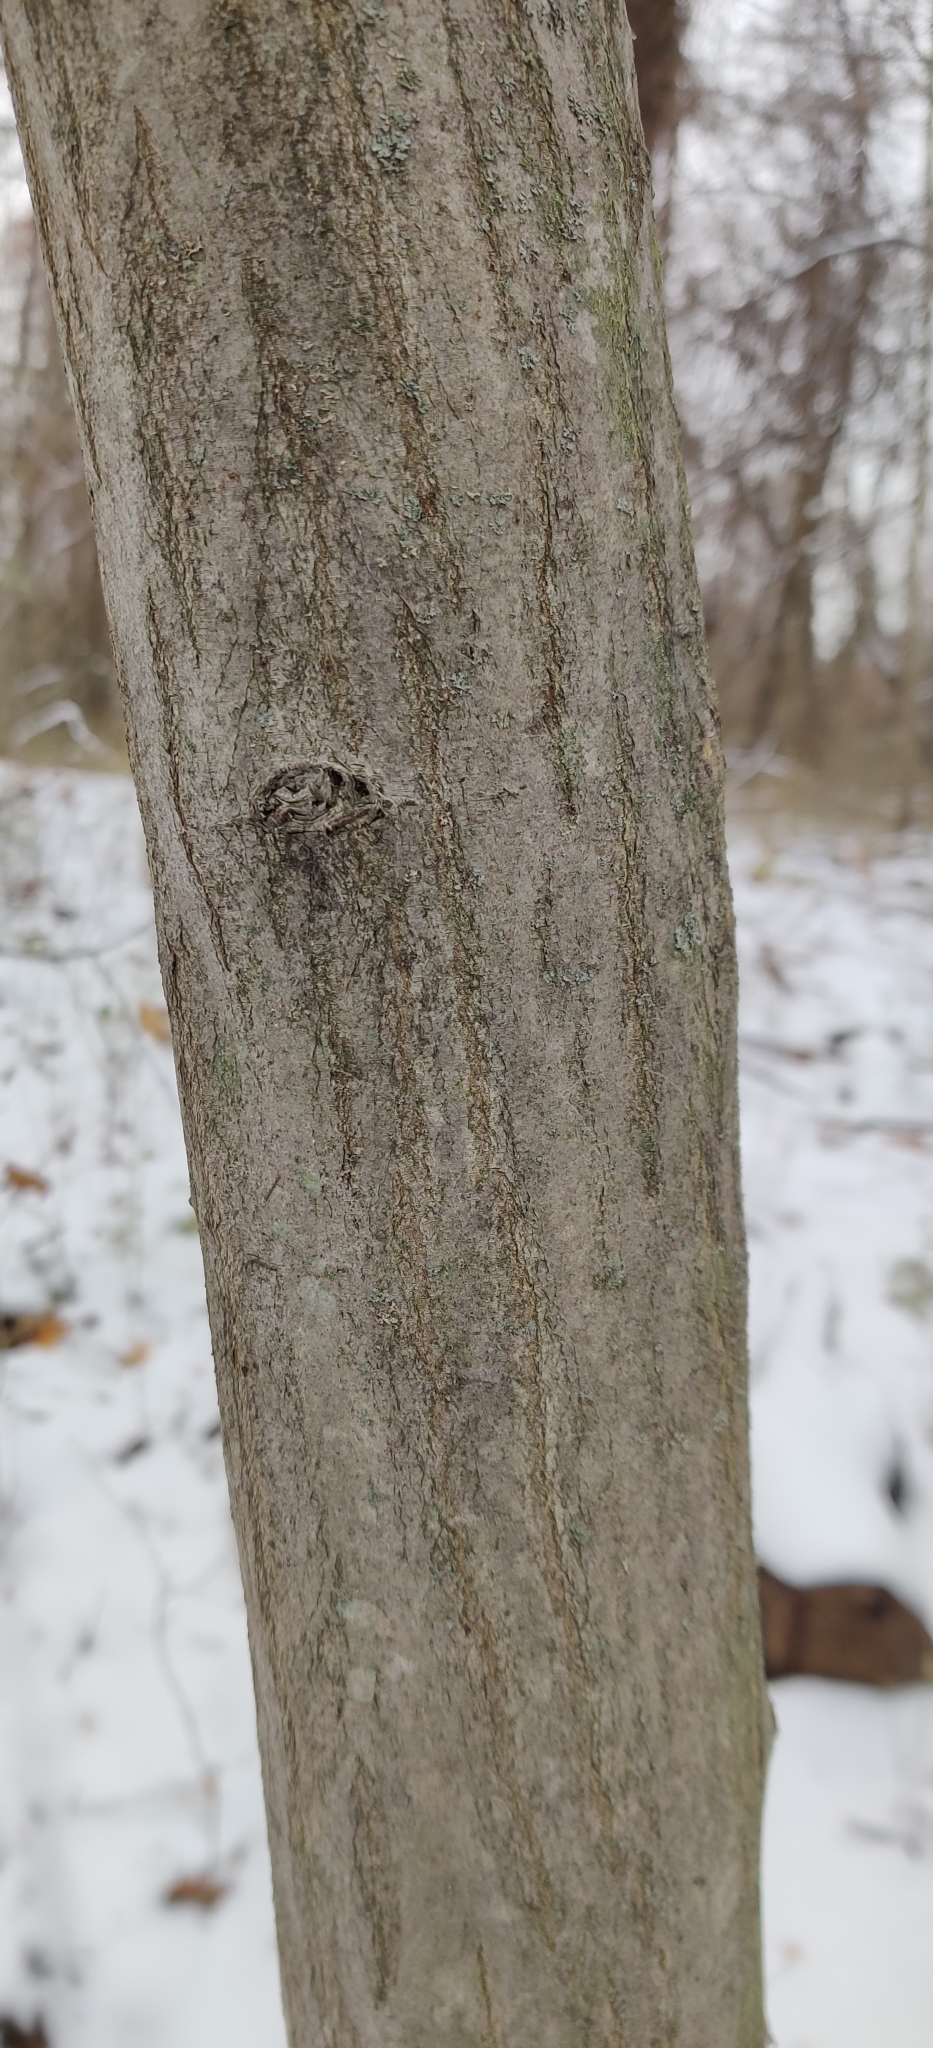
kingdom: Plantae
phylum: Tracheophyta
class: Magnoliopsida
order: Fagales
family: Betulaceae
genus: Carpinus
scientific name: Carpinus caroliniana
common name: American hornbeam
